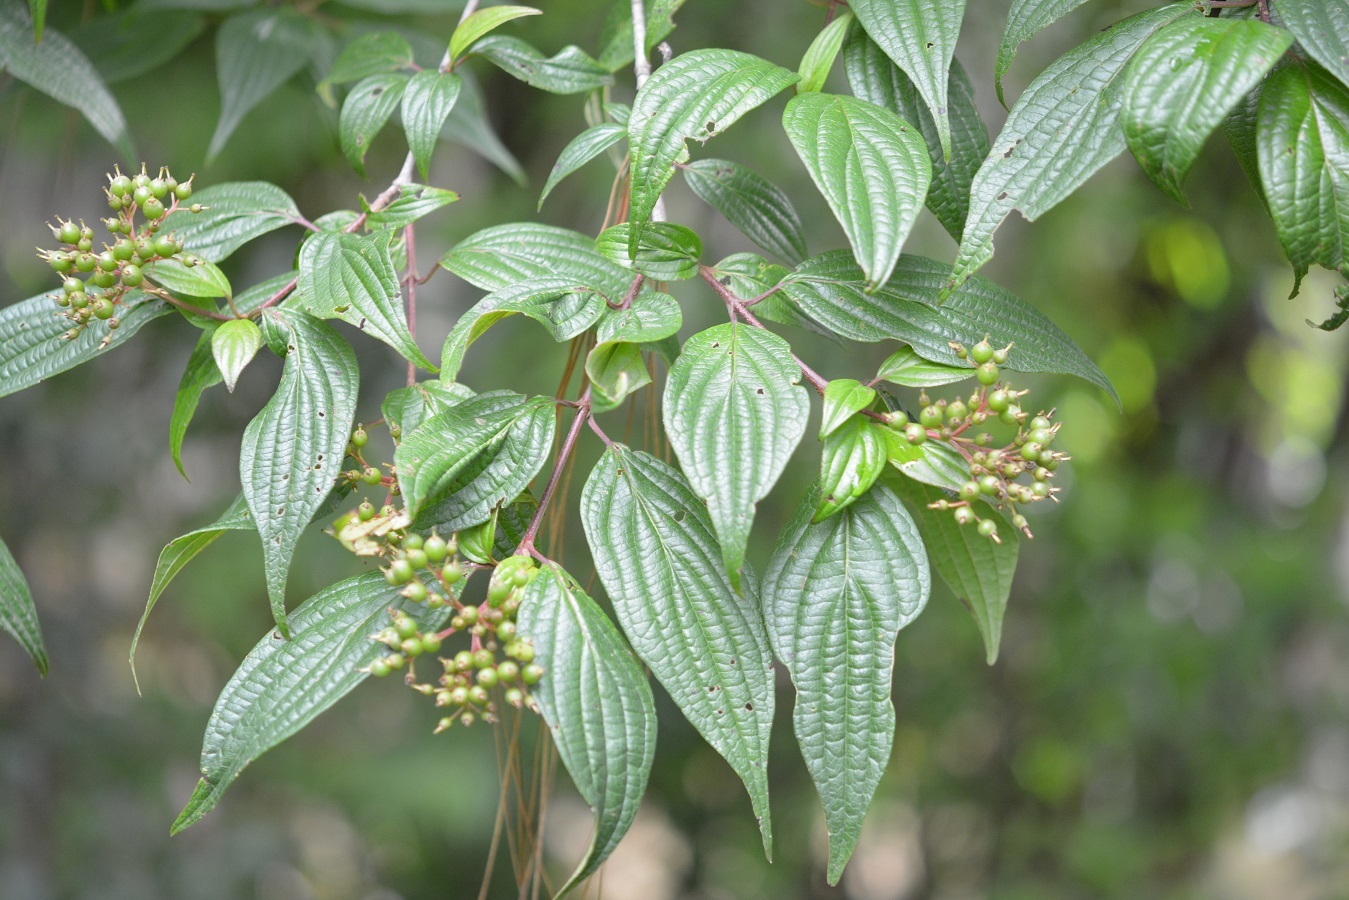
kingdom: Plantae
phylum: Tracheophyta
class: Magnoliopsida
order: Cornales
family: Cornaceae
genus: Cornus
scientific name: Cornus excelsa
